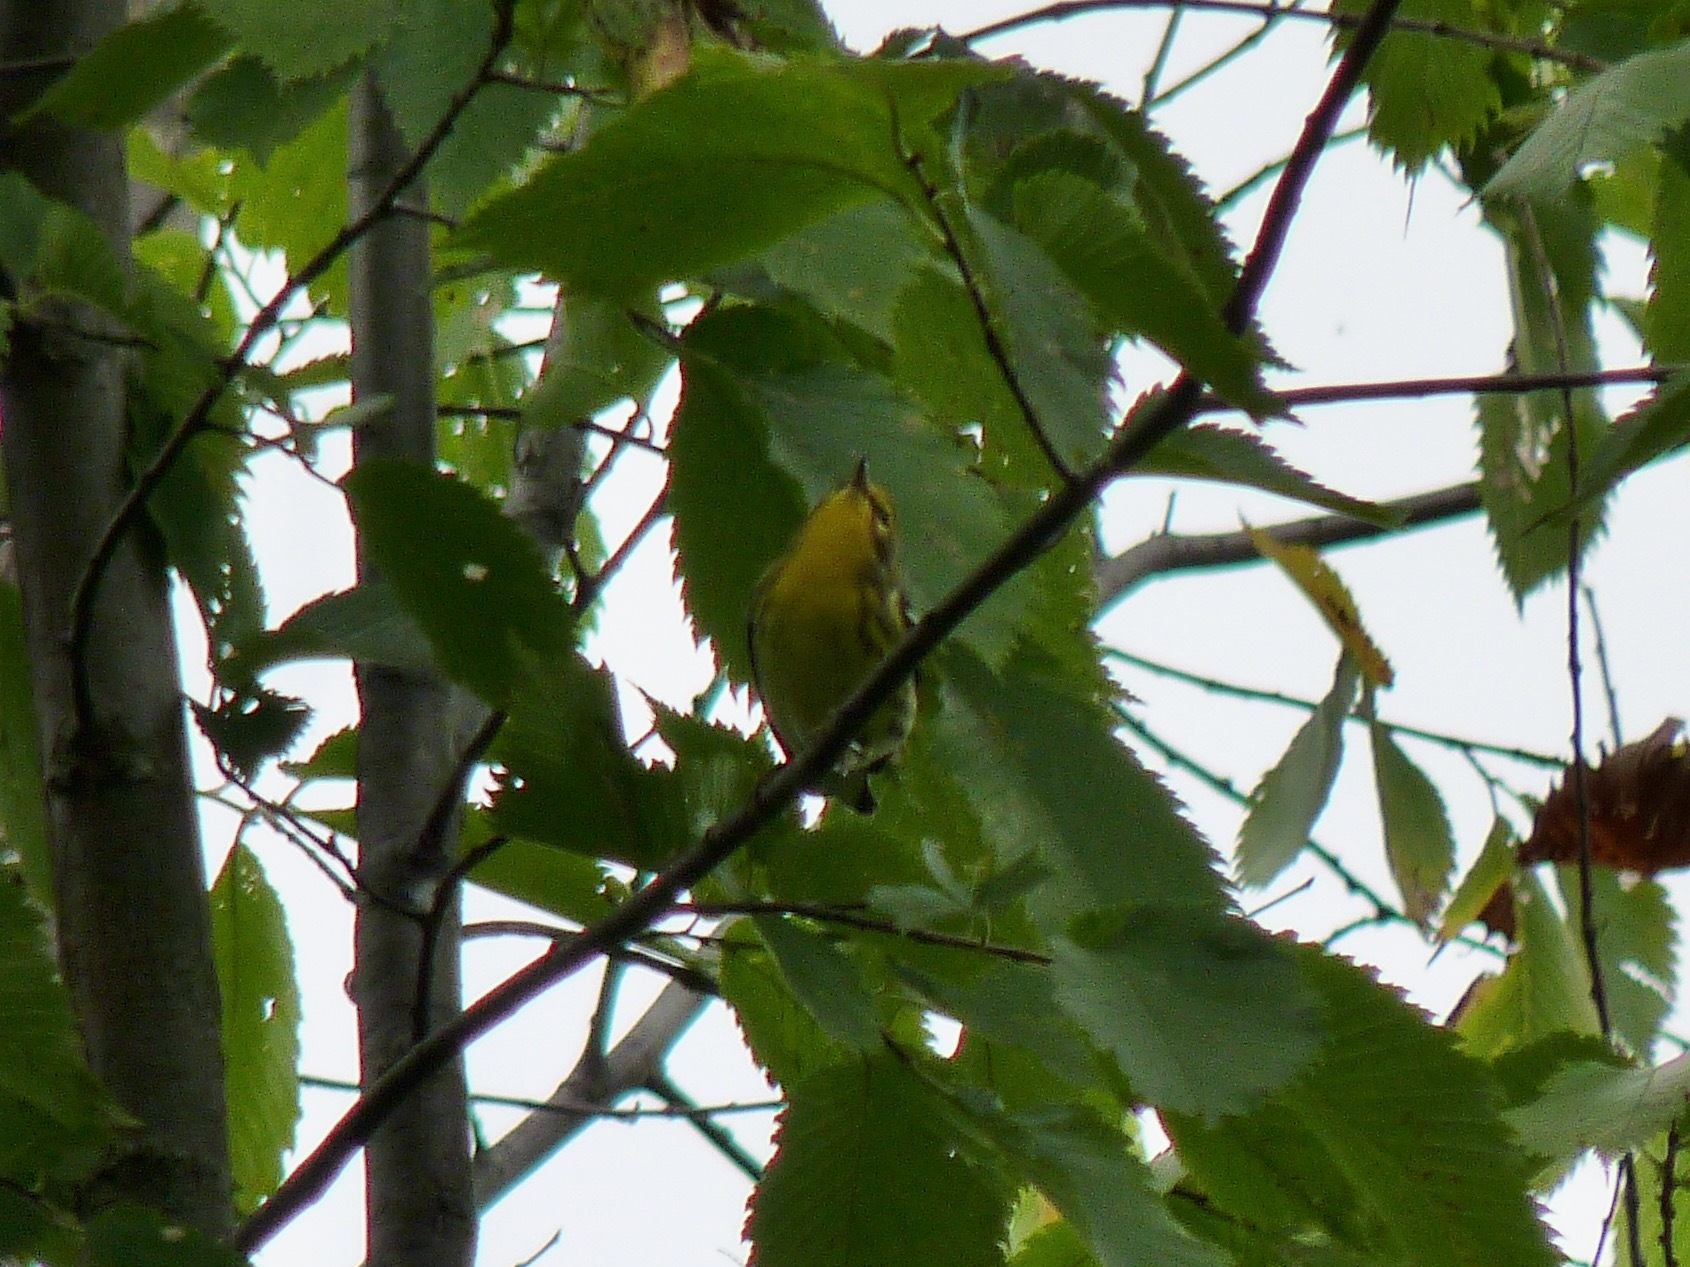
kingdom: Animalia
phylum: Chordata
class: Aves
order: Passeriformes
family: Parulidae
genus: Setophaga
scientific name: Setophaga fusca
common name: Blackburnian warbler
